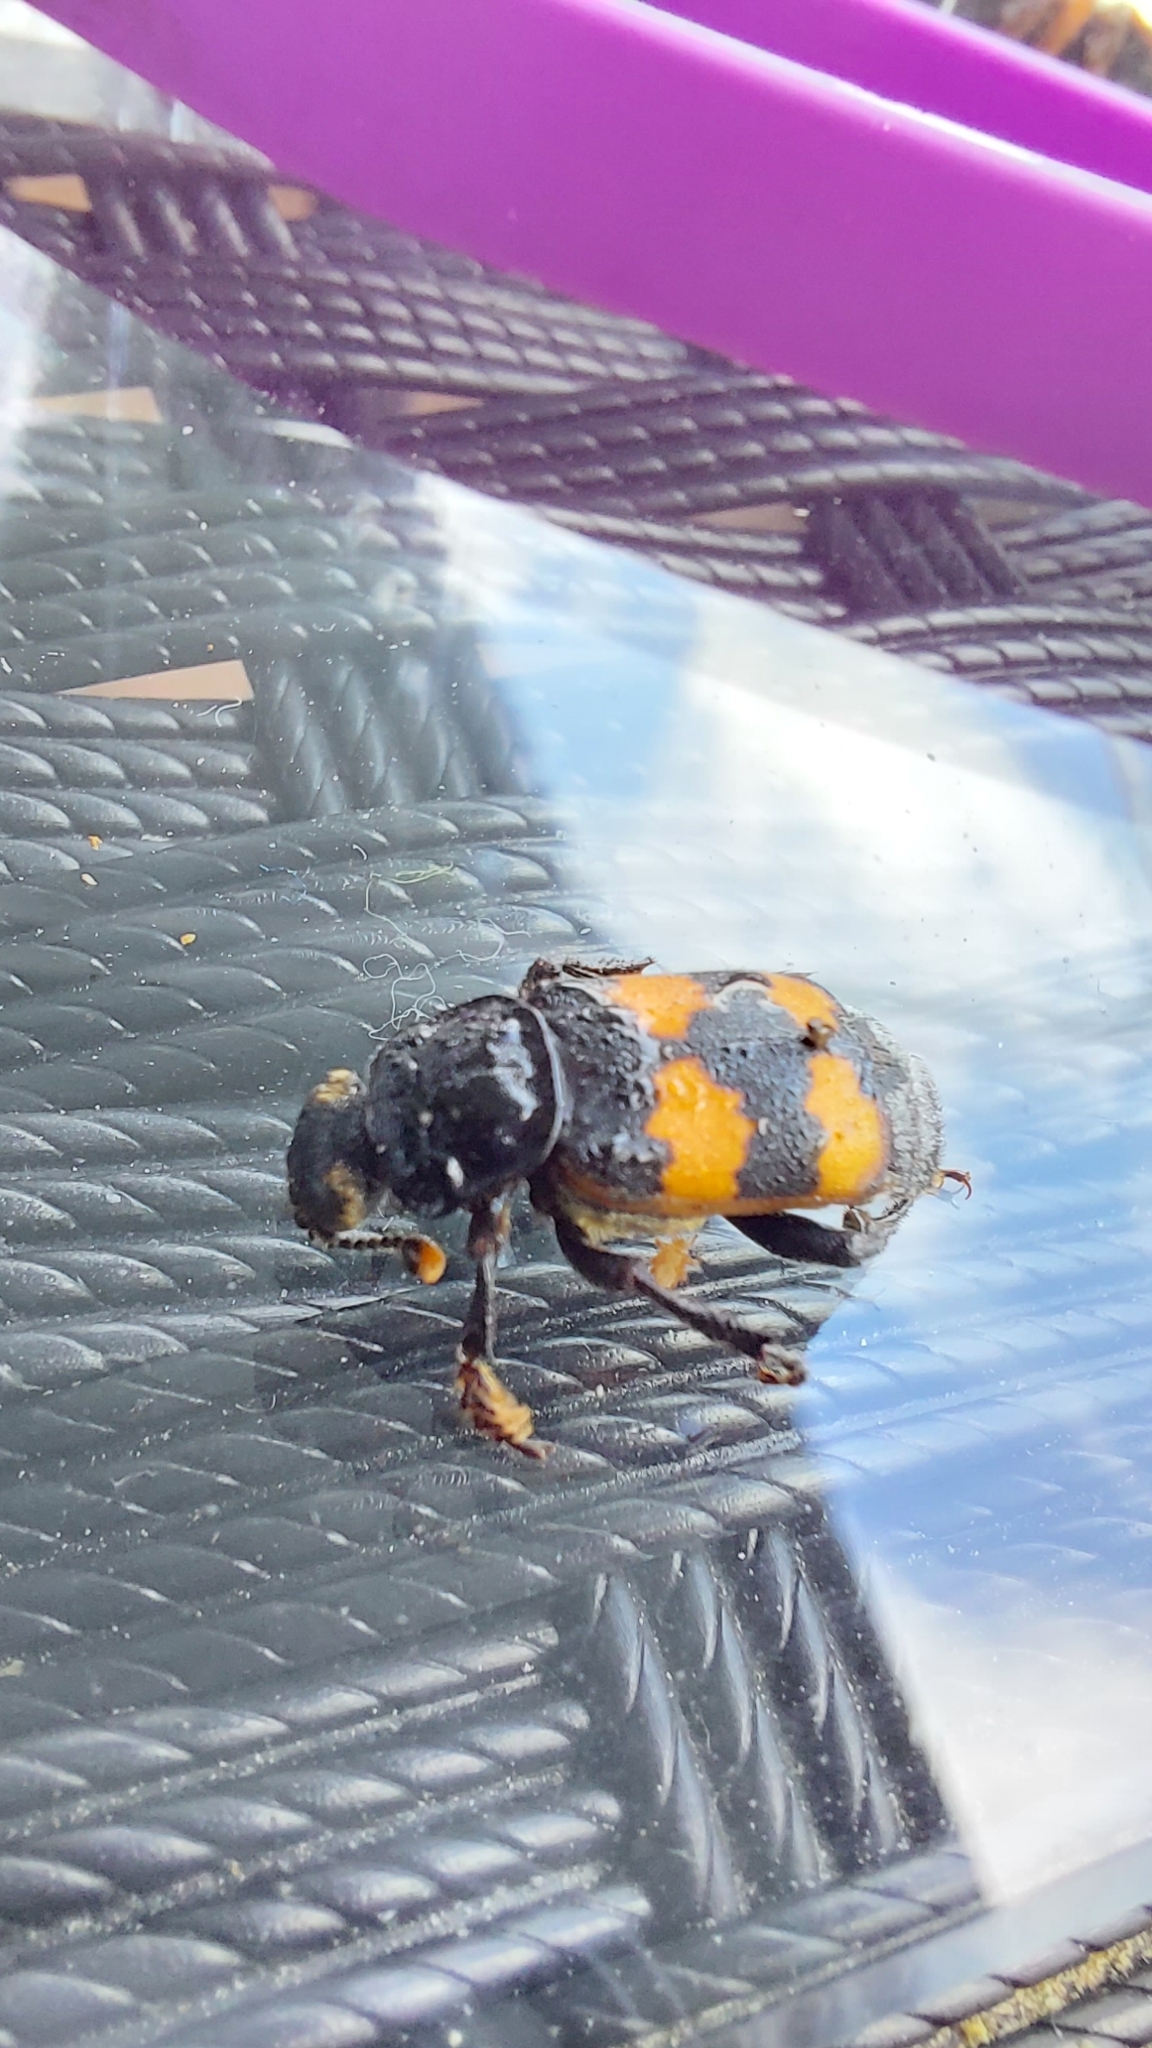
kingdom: Animalia
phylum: Arthropoda
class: Insecta
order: Coleoptera
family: Staphylinidae
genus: Nicrophorus
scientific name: Nicrophorus vespillo
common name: Common burying beetle
